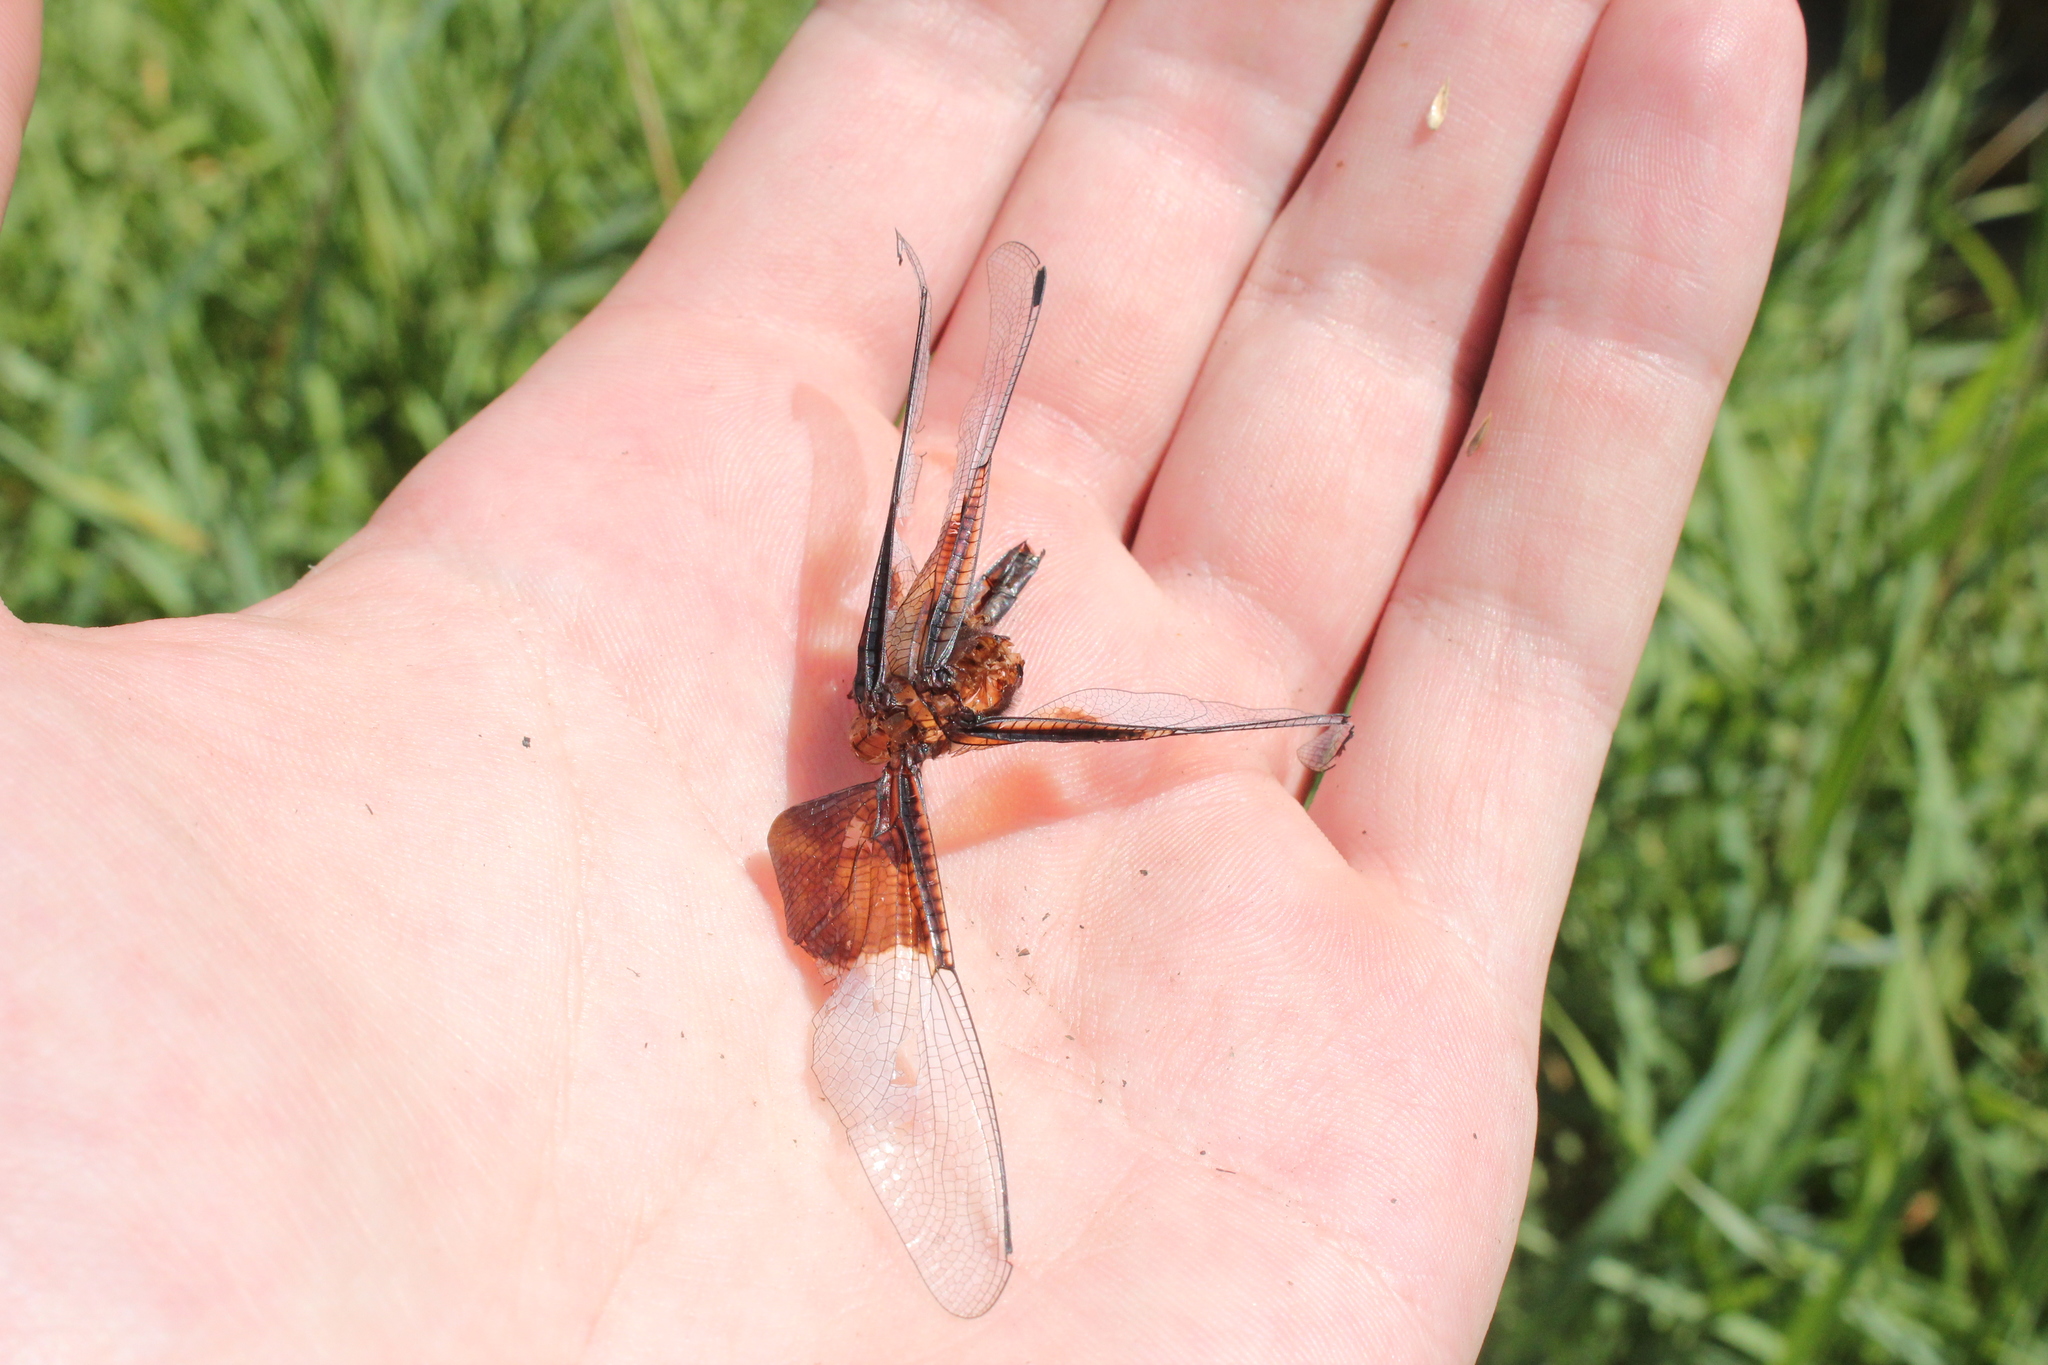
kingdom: Animalia
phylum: Arthropoda
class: Insecta
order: Odonata
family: Libellulidae
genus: Libellula
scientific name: Libellula luctuosa
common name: Widow skimmer
